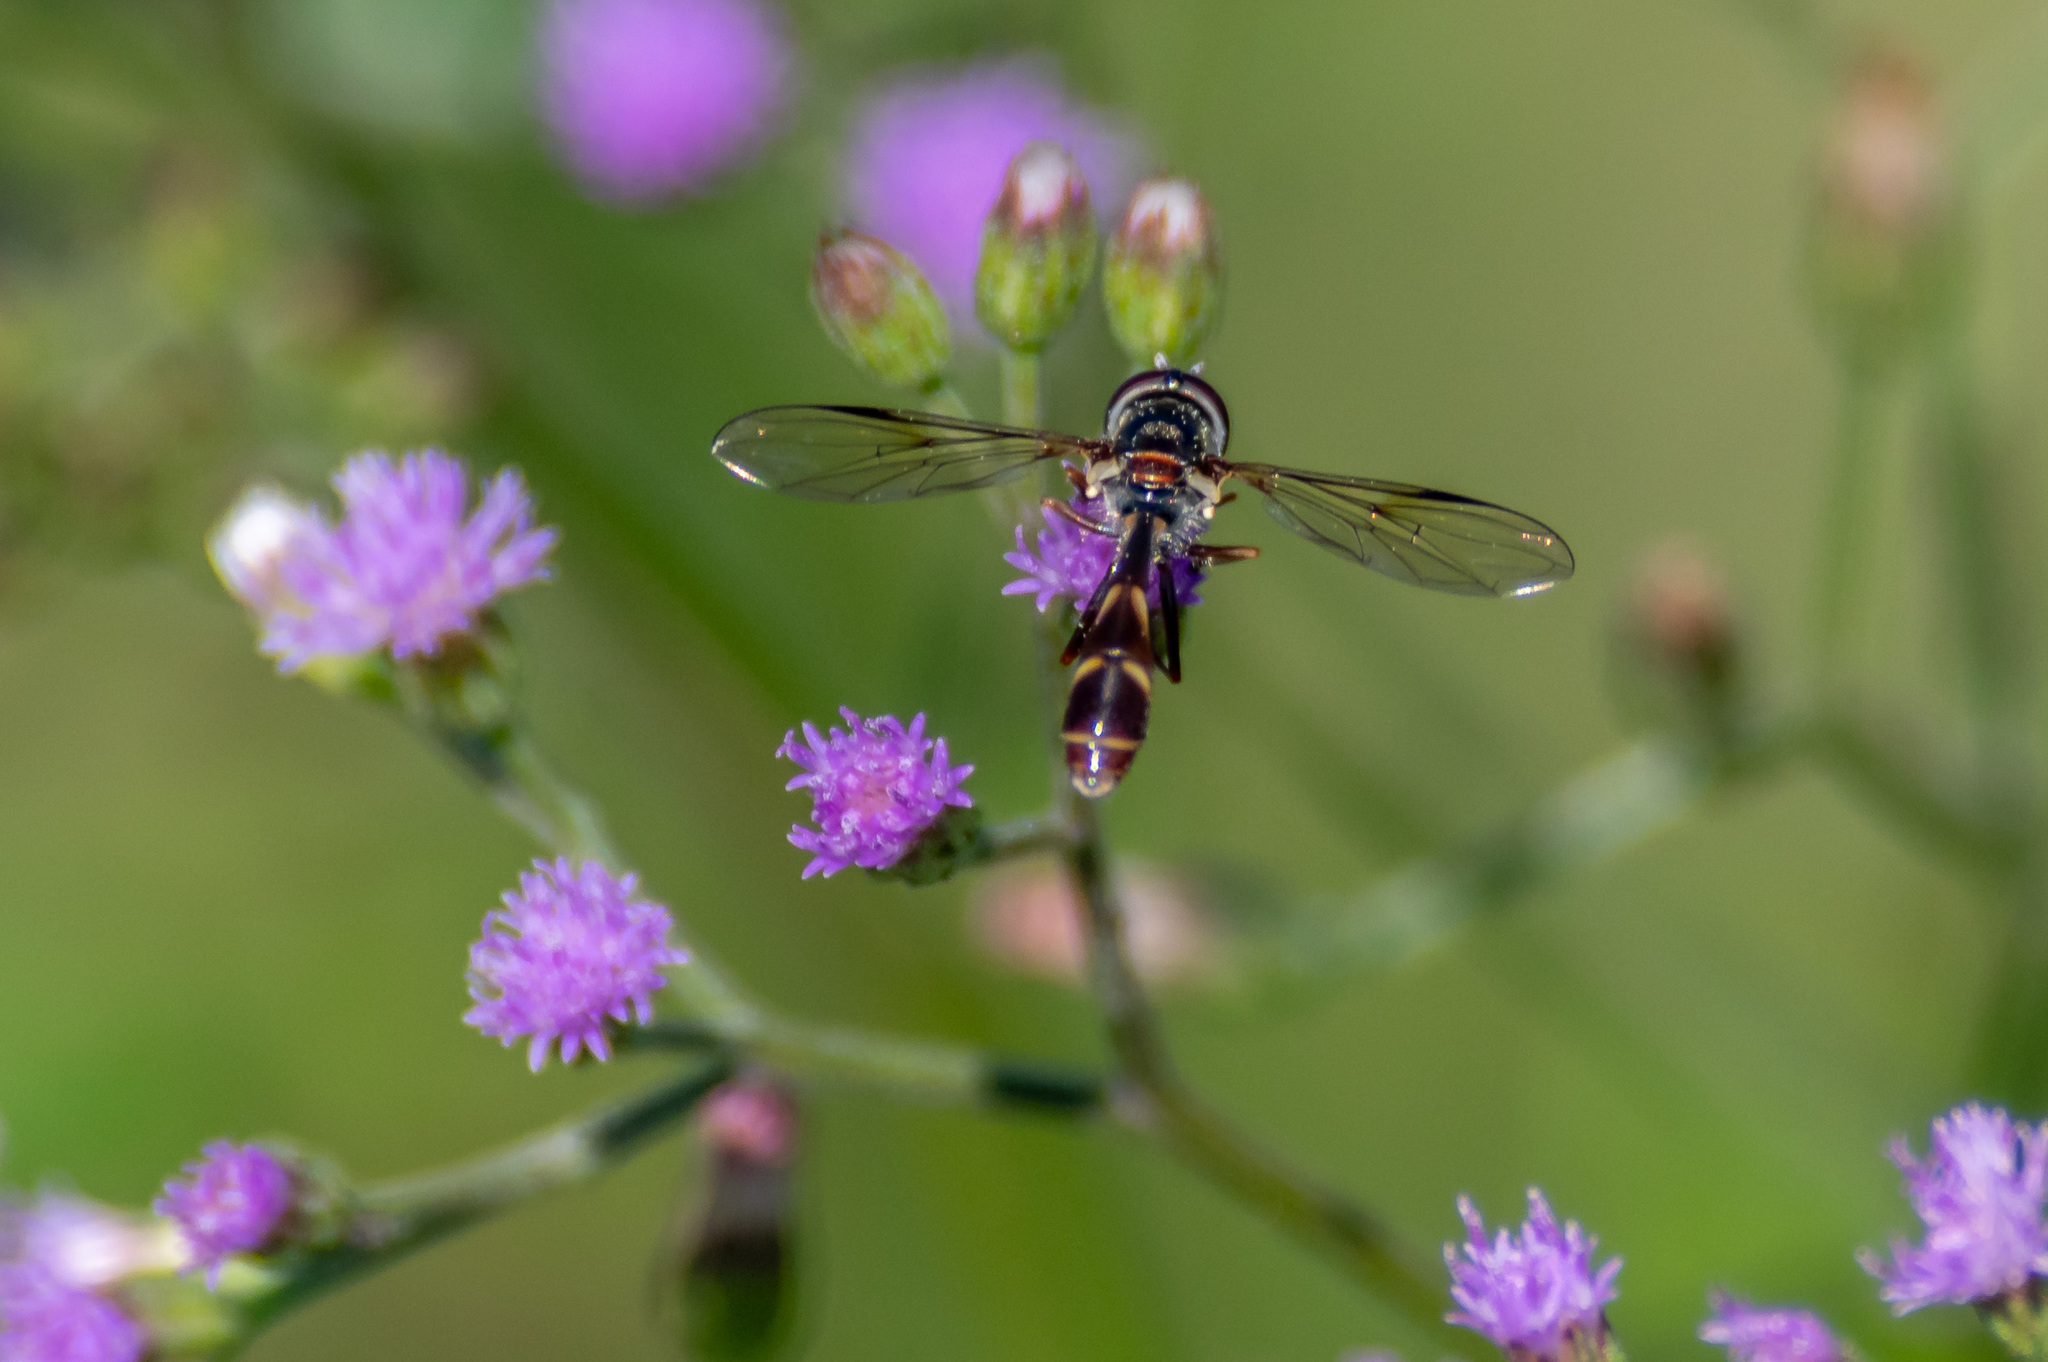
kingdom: Animalia
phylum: Arthropoda
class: Insecta
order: Diptera
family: Syrphidae
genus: Dioprosopa
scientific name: Dioprosopa clavatus
